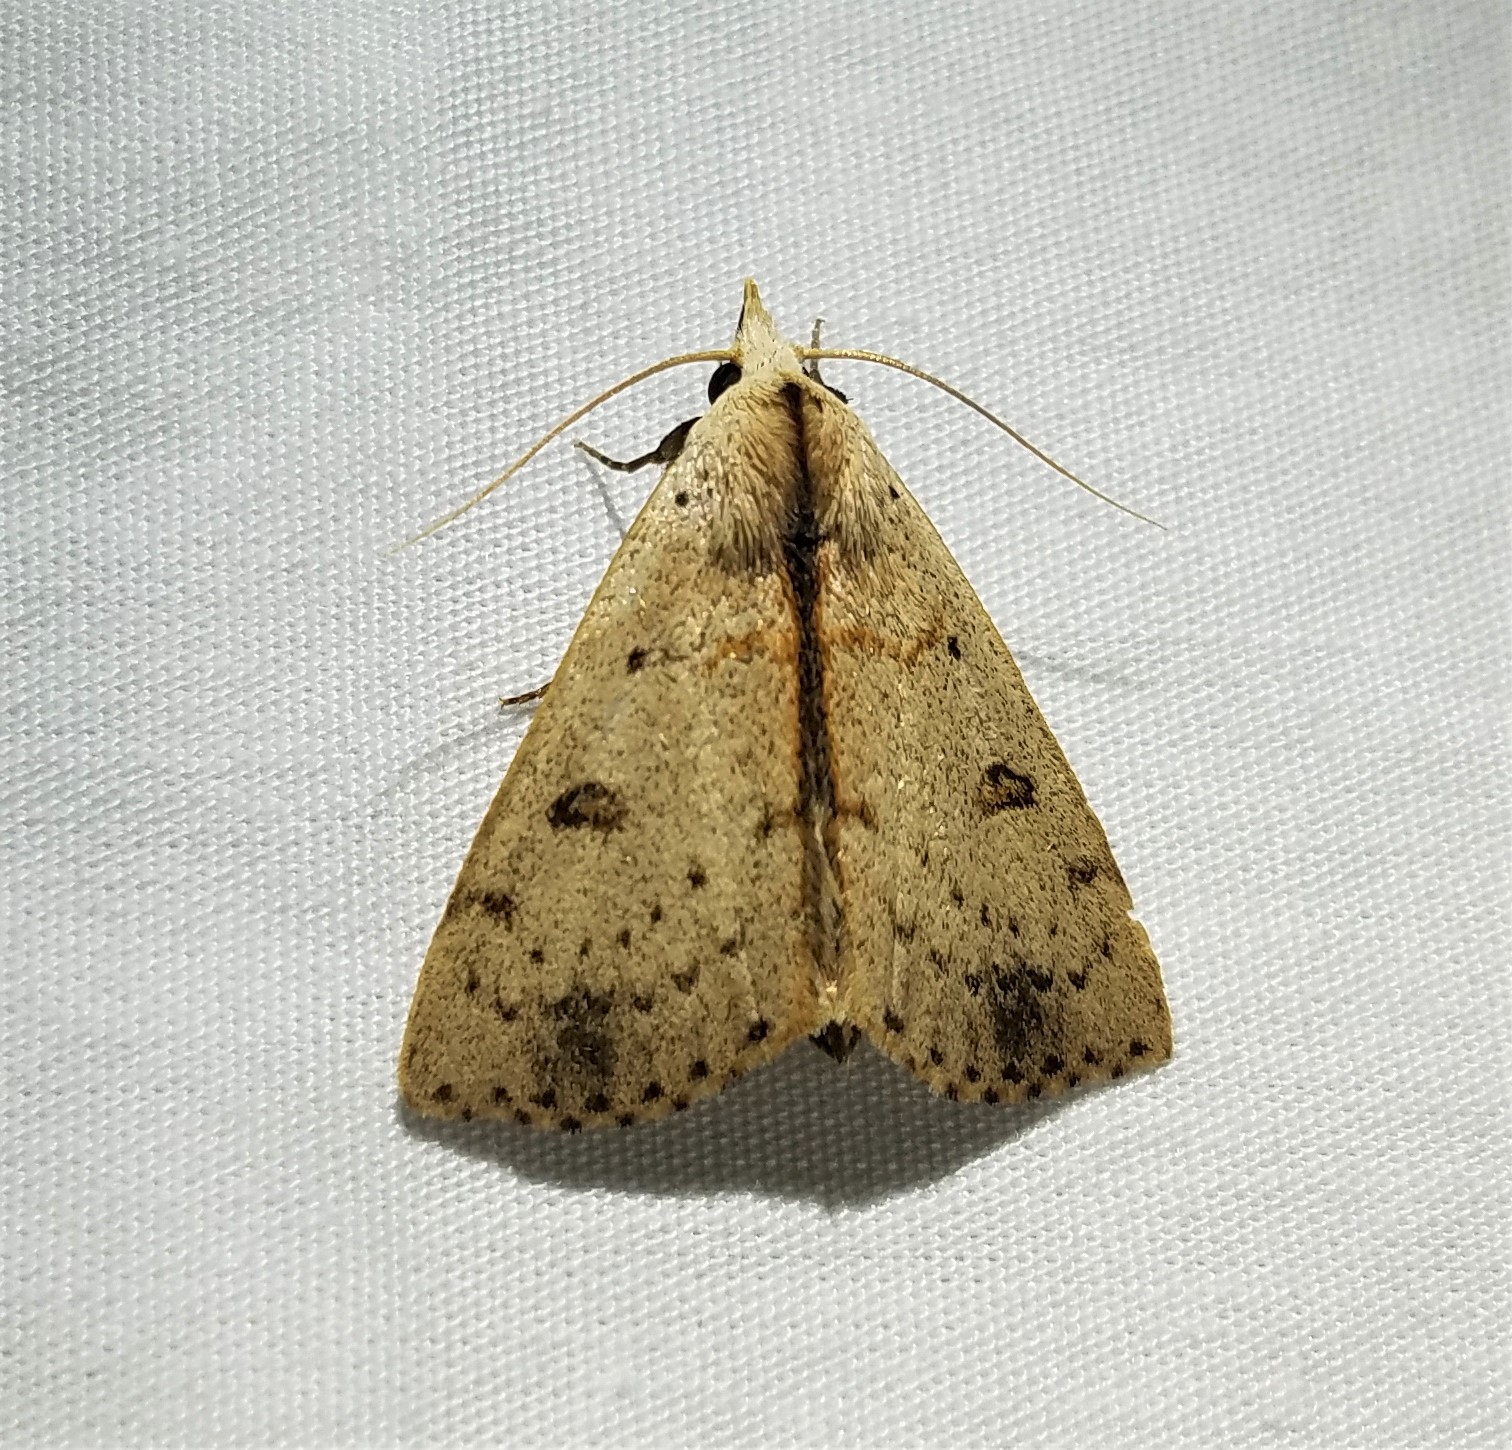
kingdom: Animalia
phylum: Arthropoda
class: Insecta
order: Lepidoptera
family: Erebidae
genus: Scolecocampa
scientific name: Scolecocampa liburna
